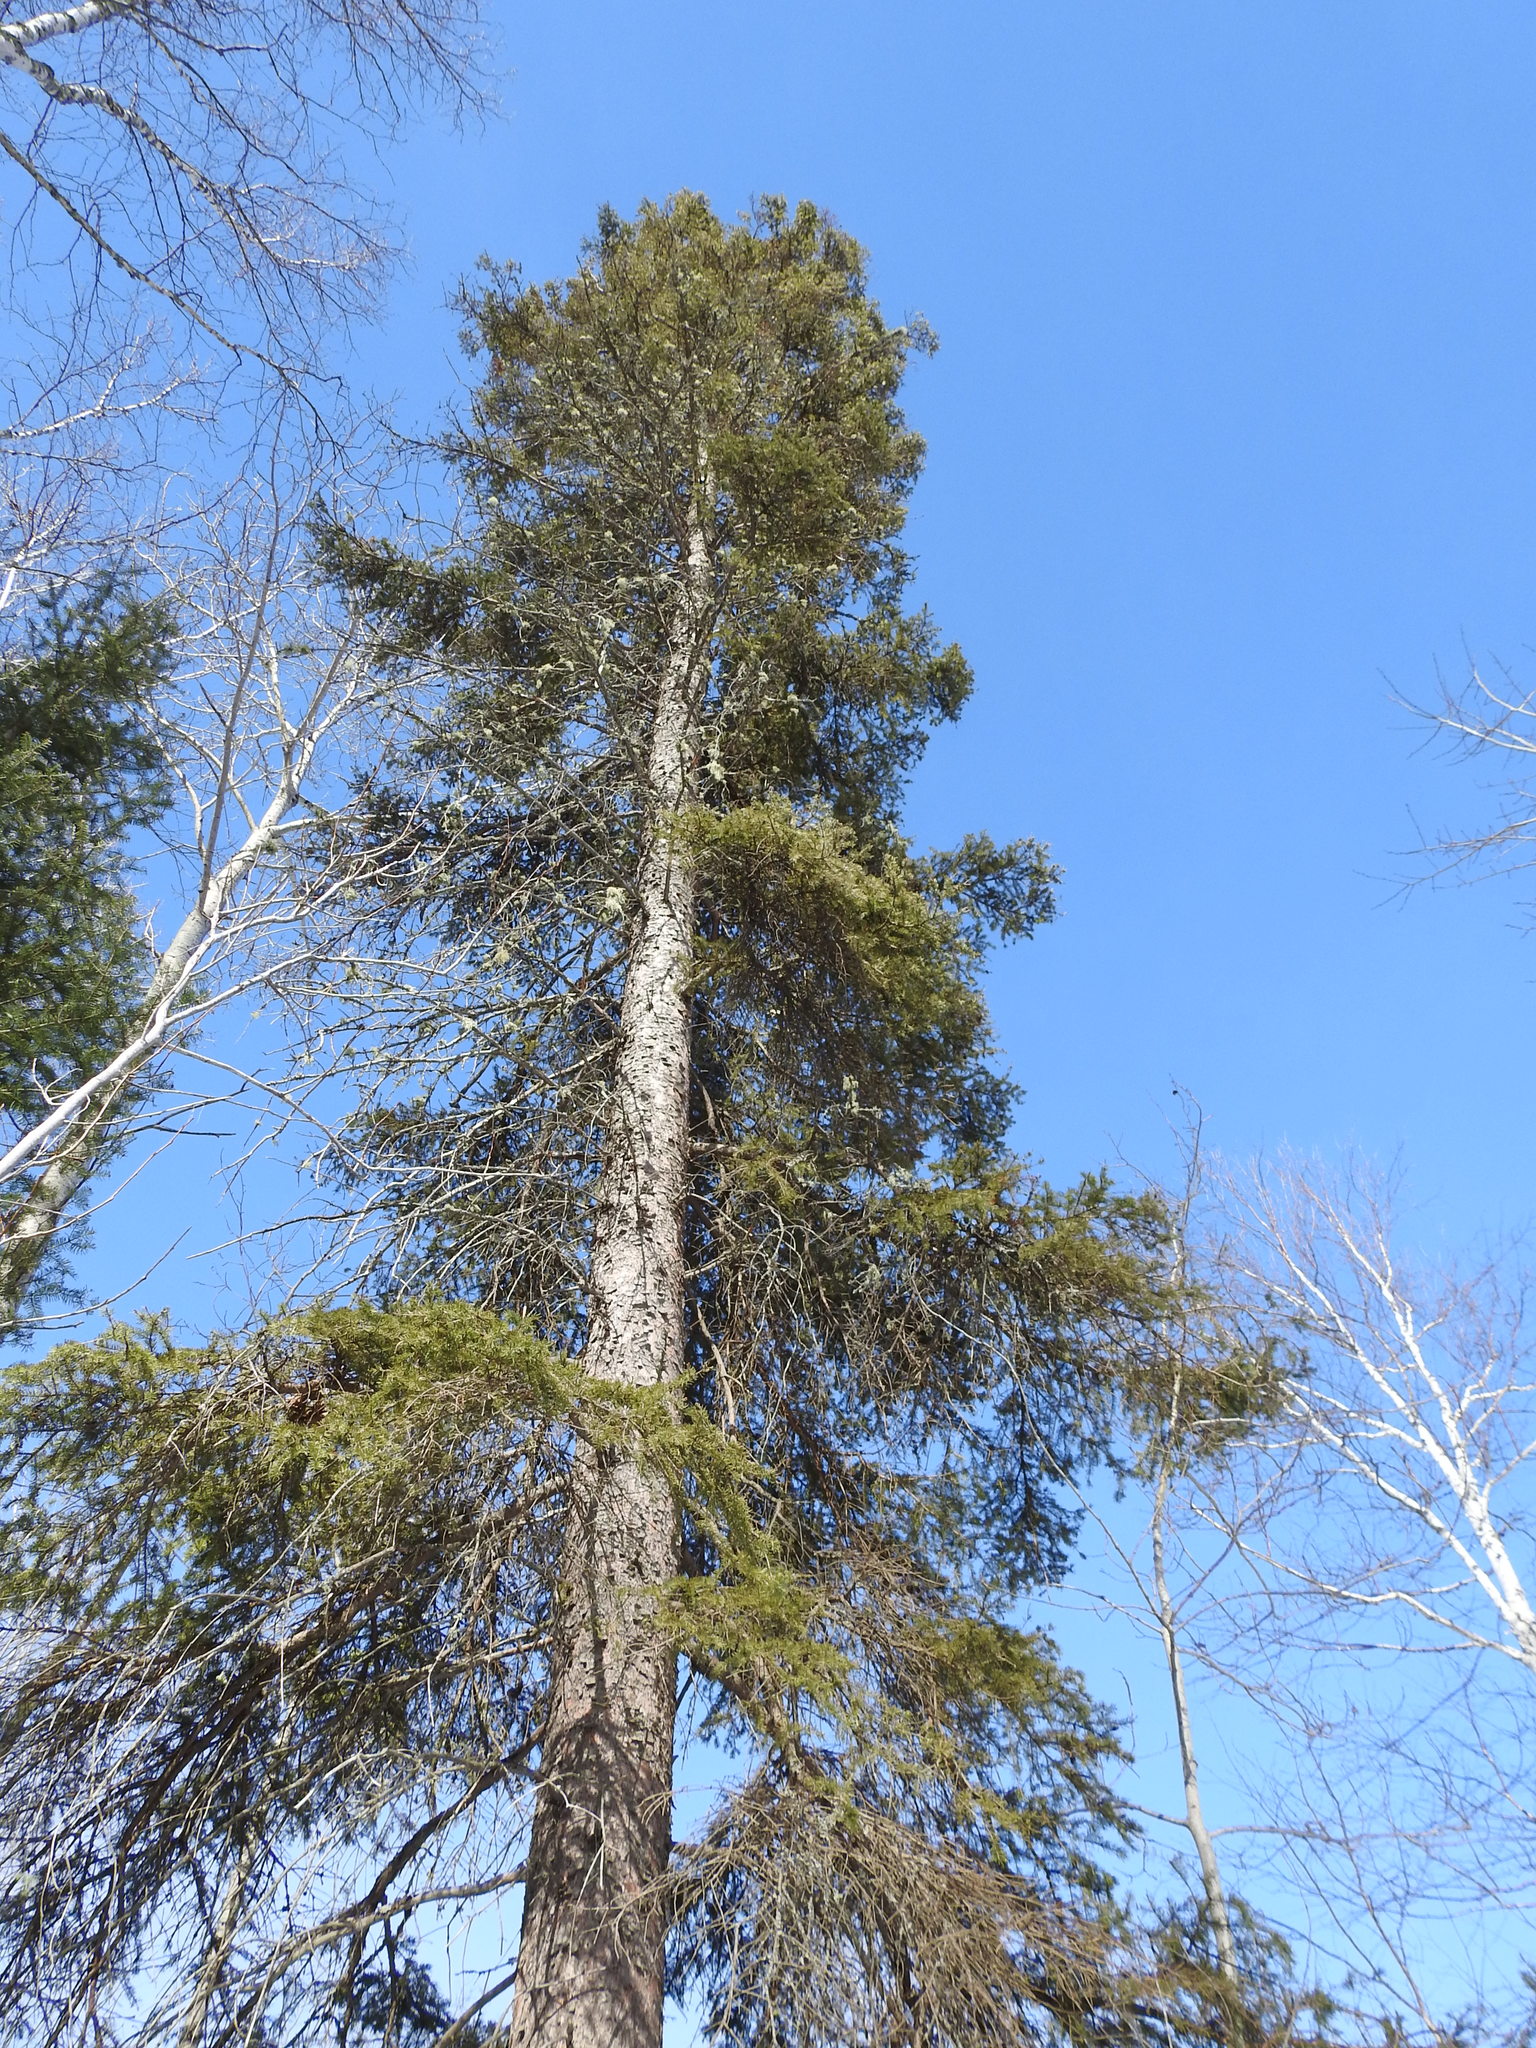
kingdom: Plantae
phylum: Tracheophyta
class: Pinopsida
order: Pinales
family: Pinaceae
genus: Picea
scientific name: Picea glauca
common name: White spruce
